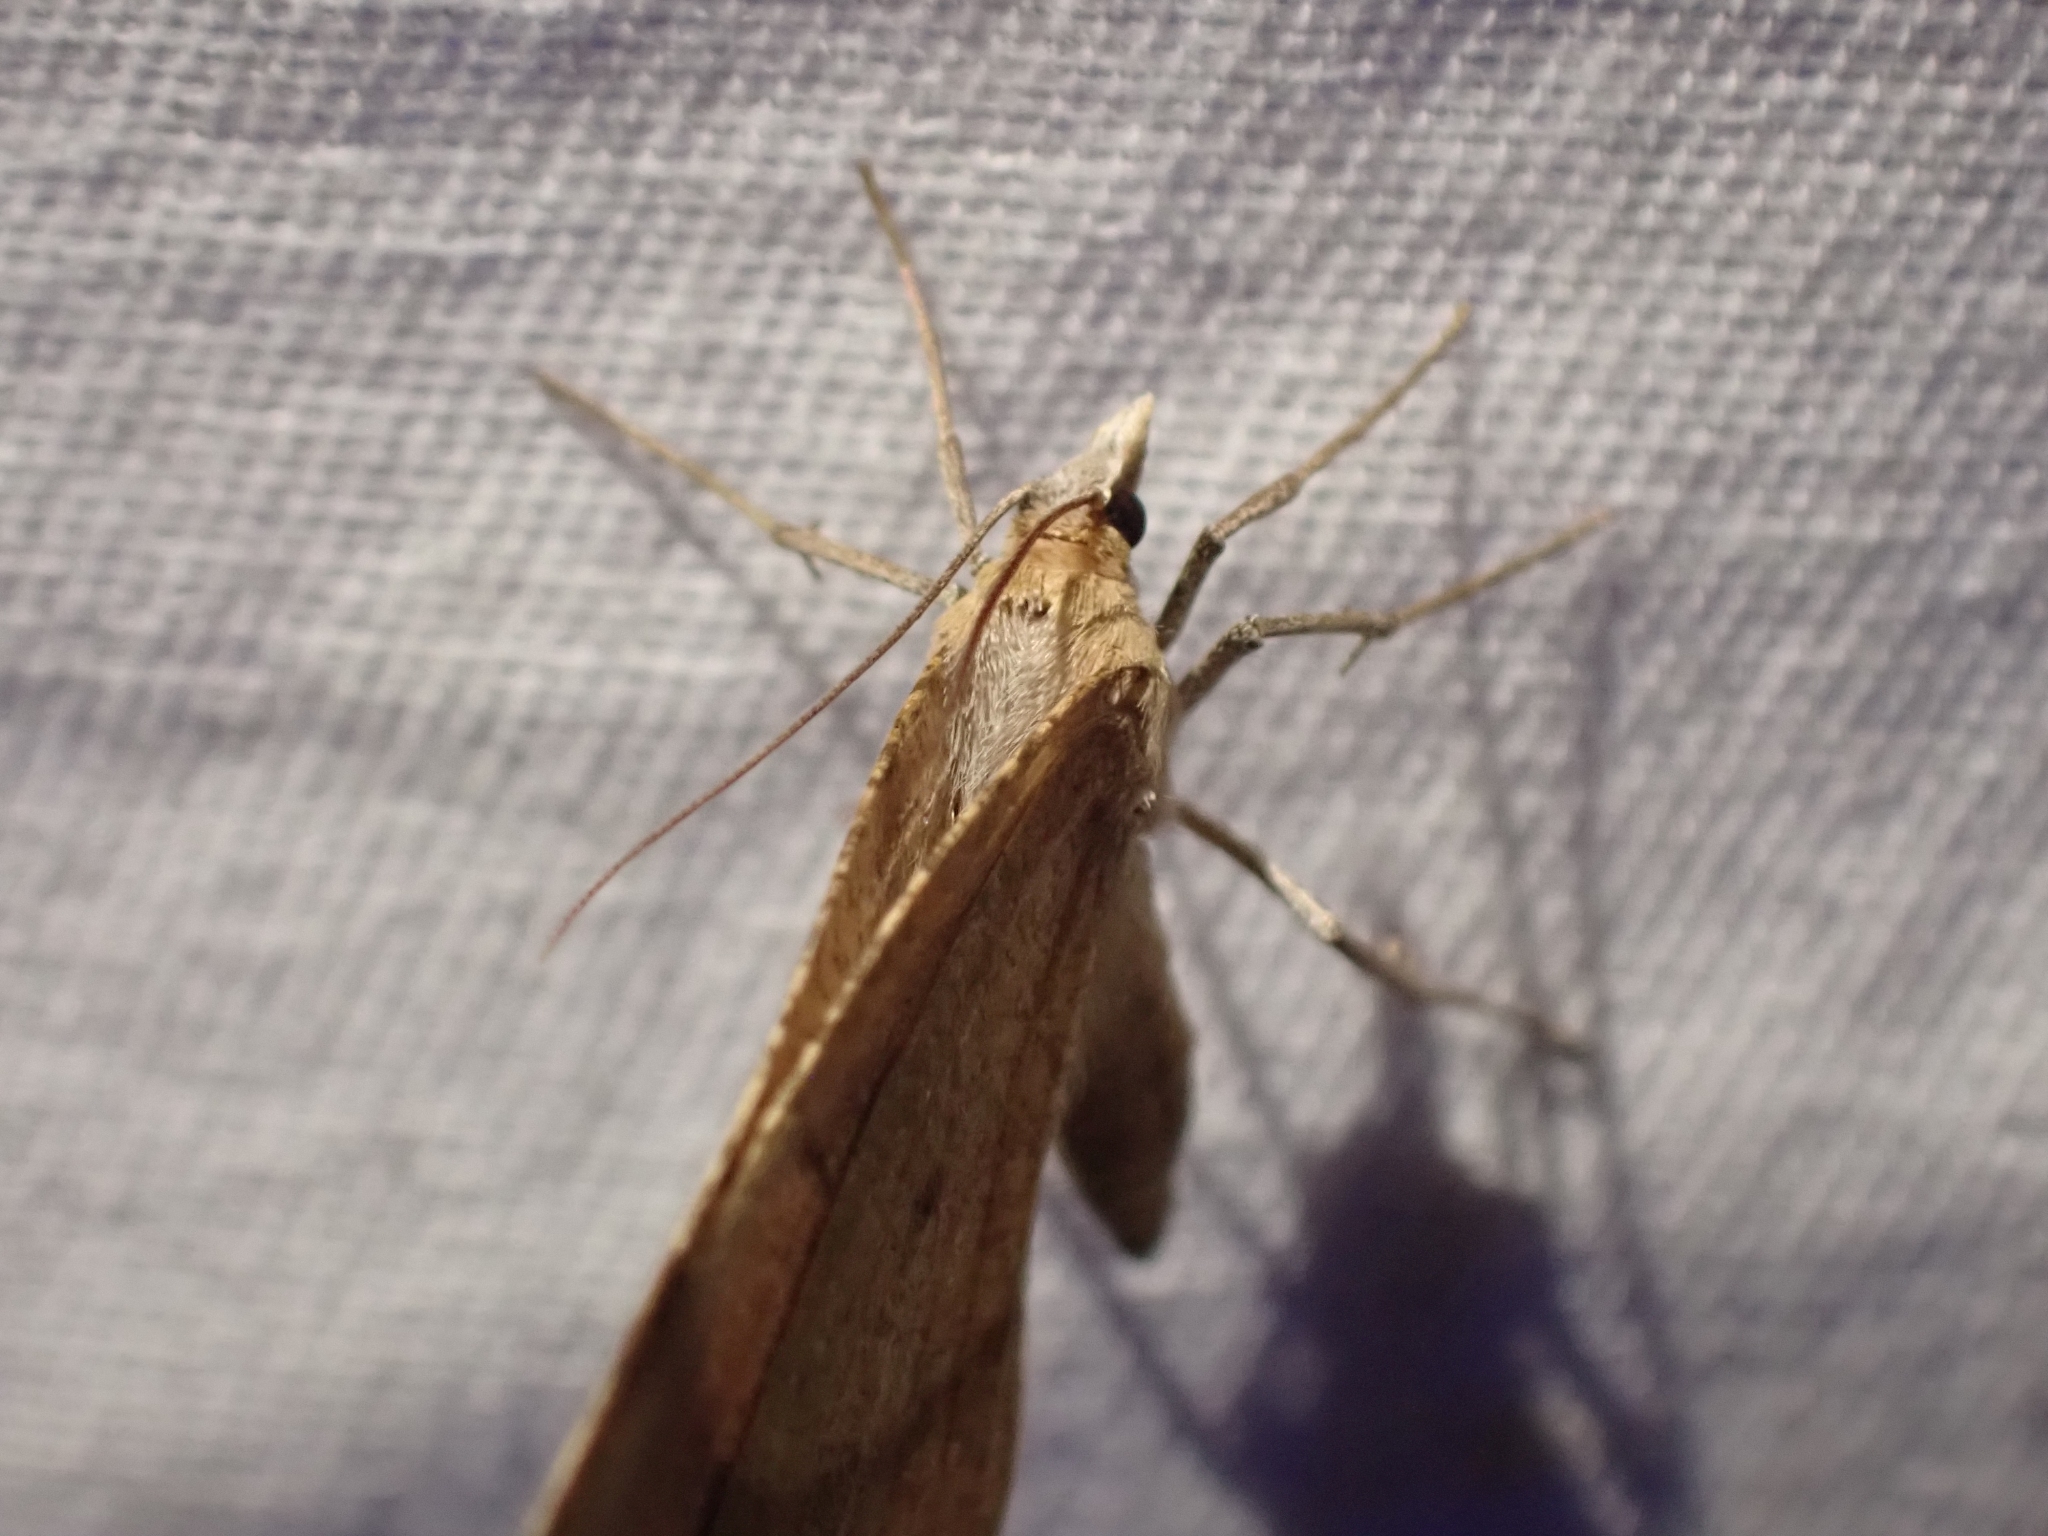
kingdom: Animalia
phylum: Arthropoda
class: Insecta
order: Lepidoptera
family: Geometridae
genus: Sericosema
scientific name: Sericosema juturnaria
